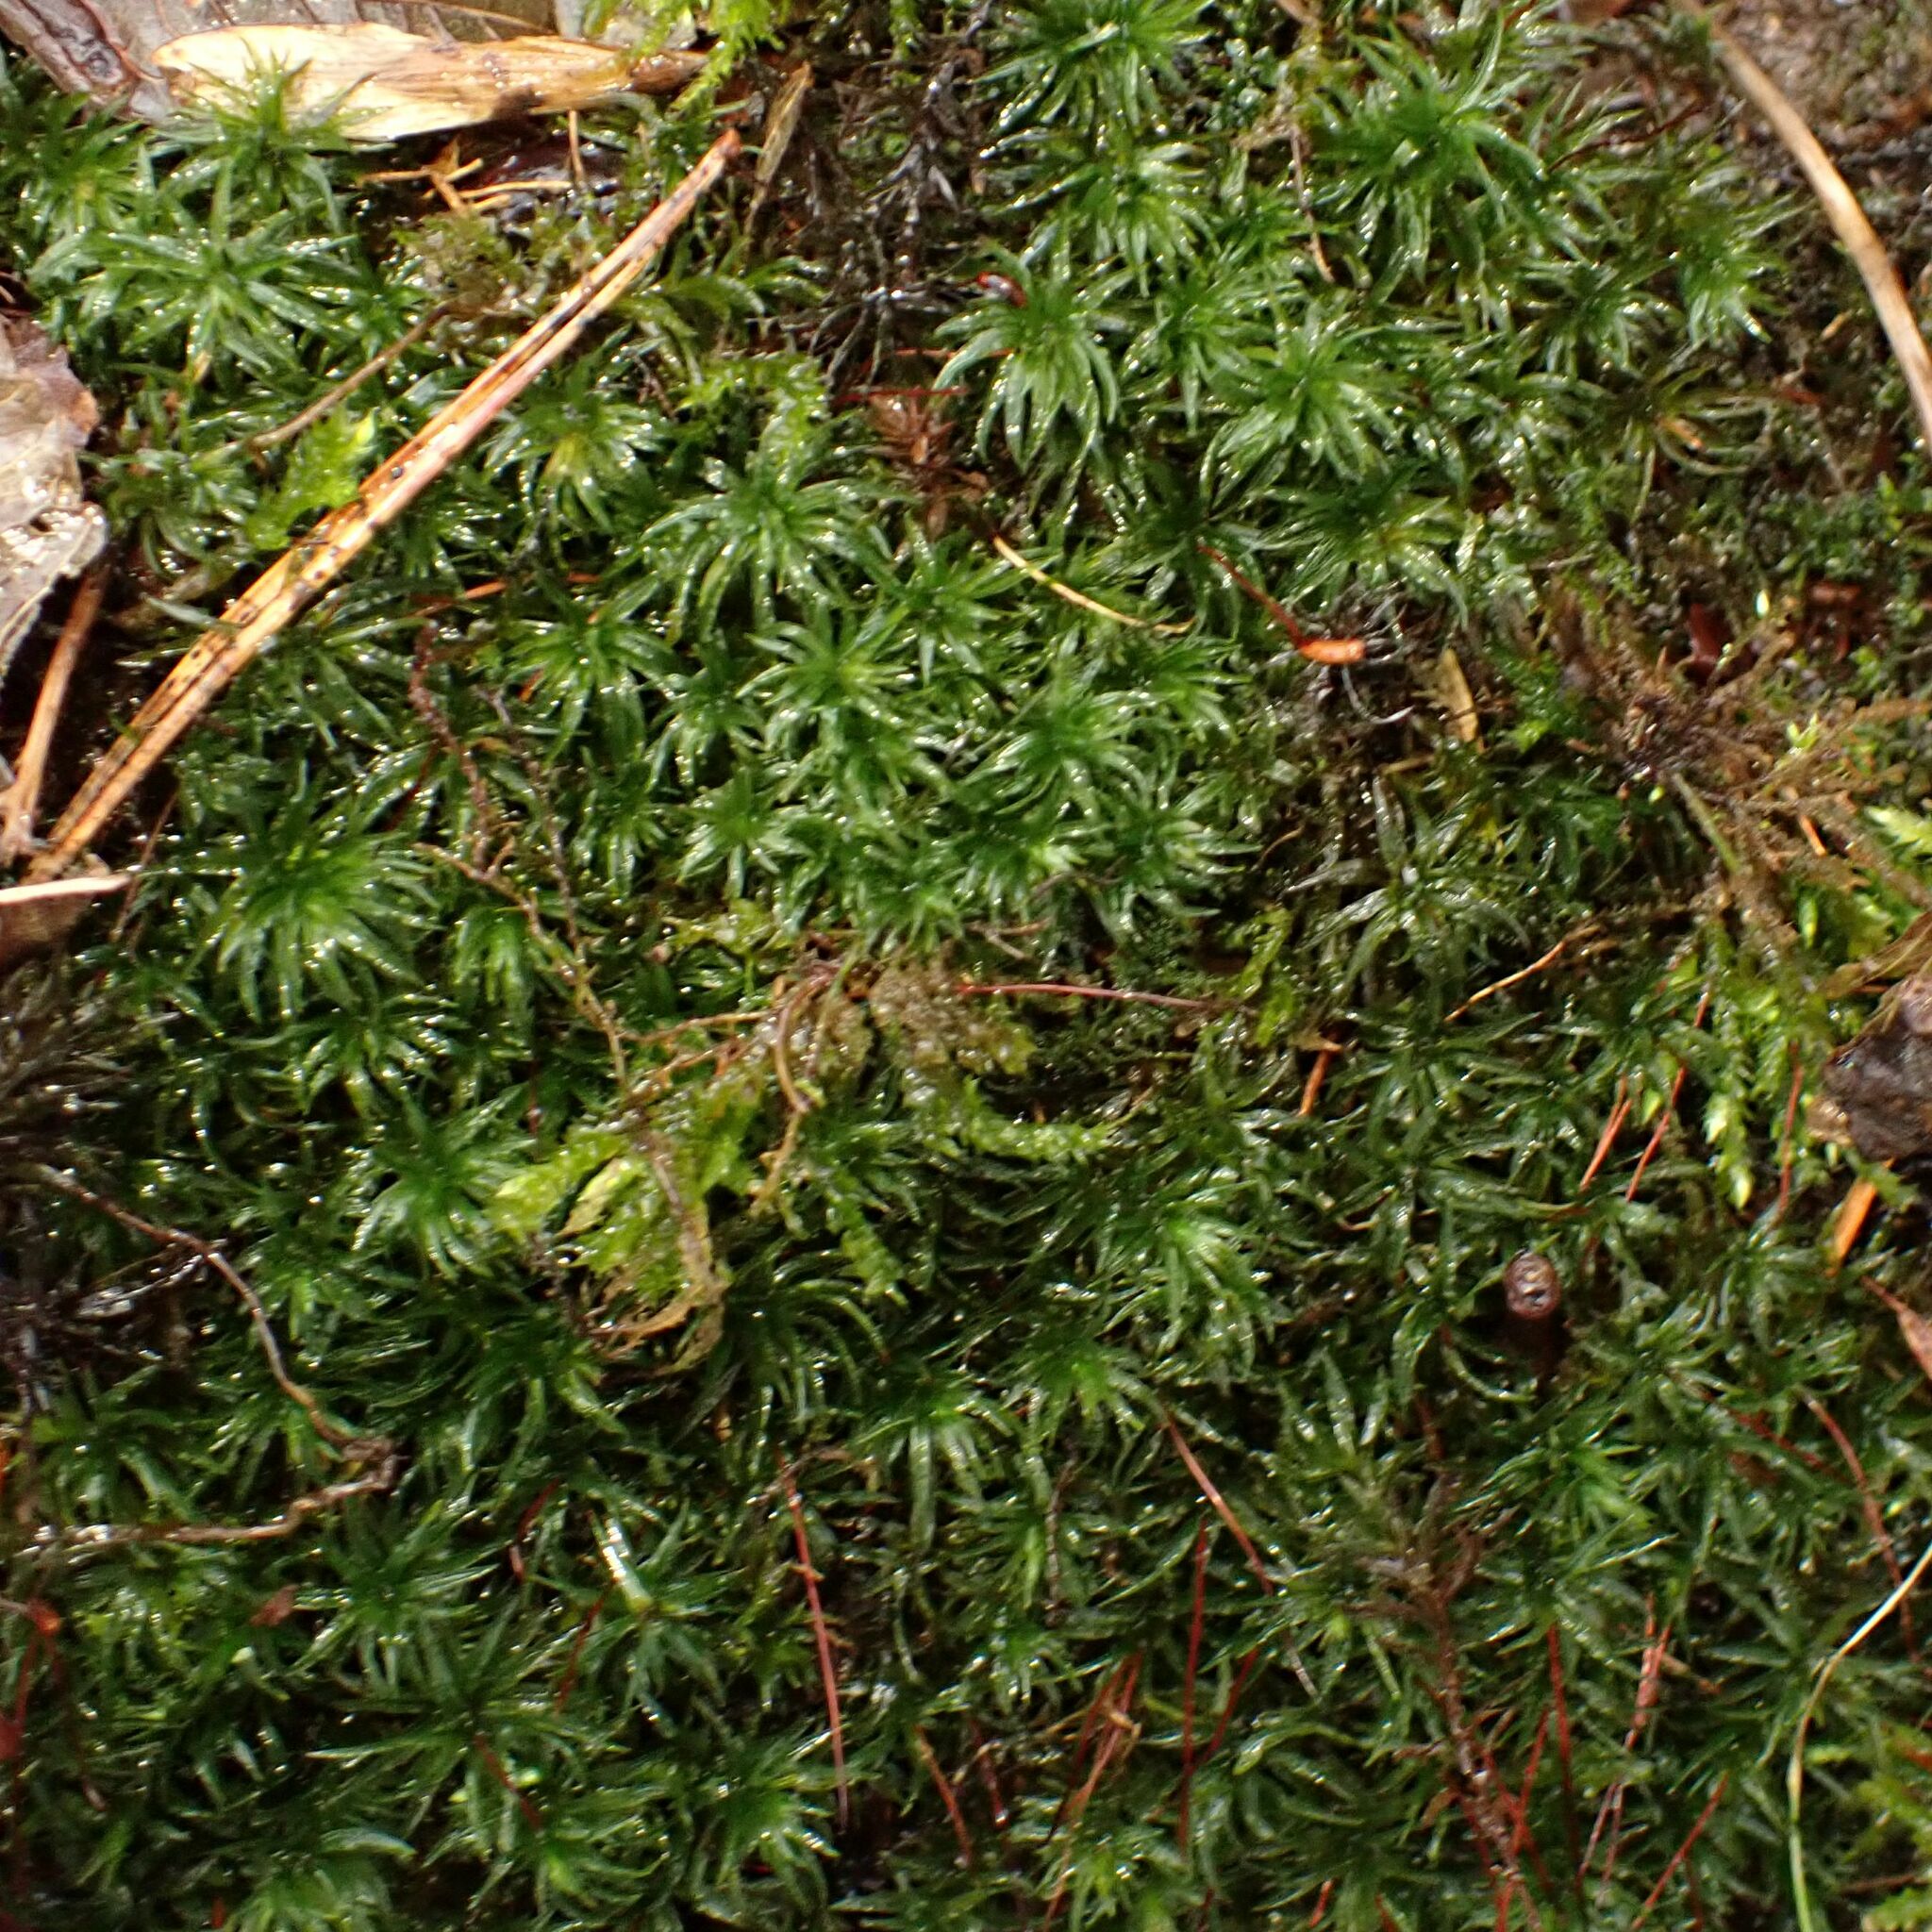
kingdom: Plantae
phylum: Bryophyta
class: Polytrichopsida
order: Polytrichales
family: Polytrichaceae
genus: Atrichum
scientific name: Atrichum undulatum
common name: Common smoothcap
